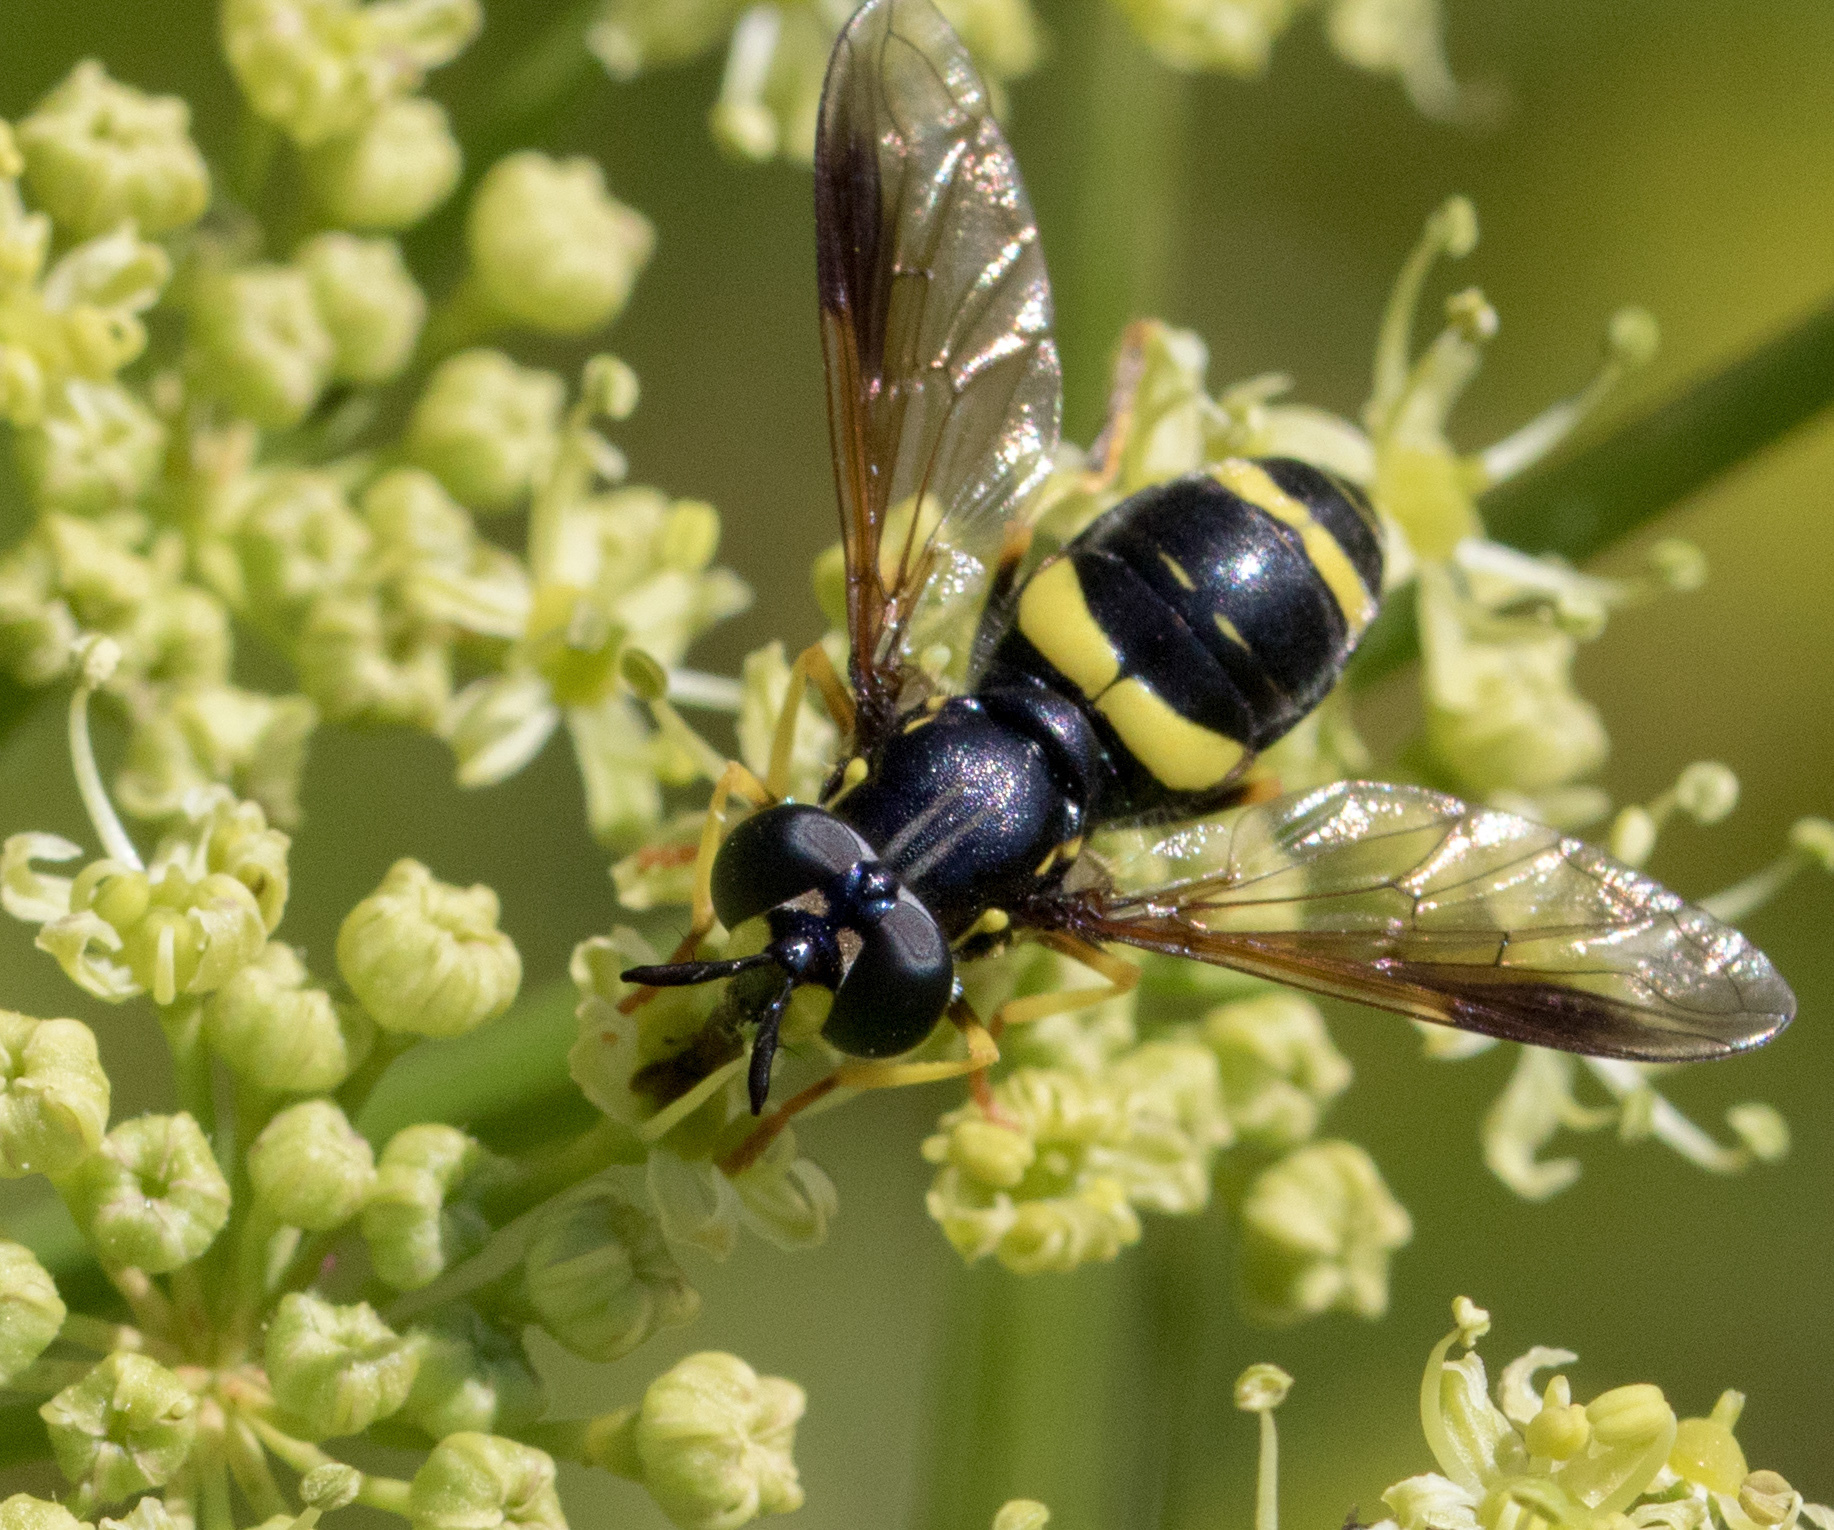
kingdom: Animalia
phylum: Arthropoda
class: Insecta
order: Diptera
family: Syrphidae
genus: Chrysotoxum
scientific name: Chrysotoxum bicincta
